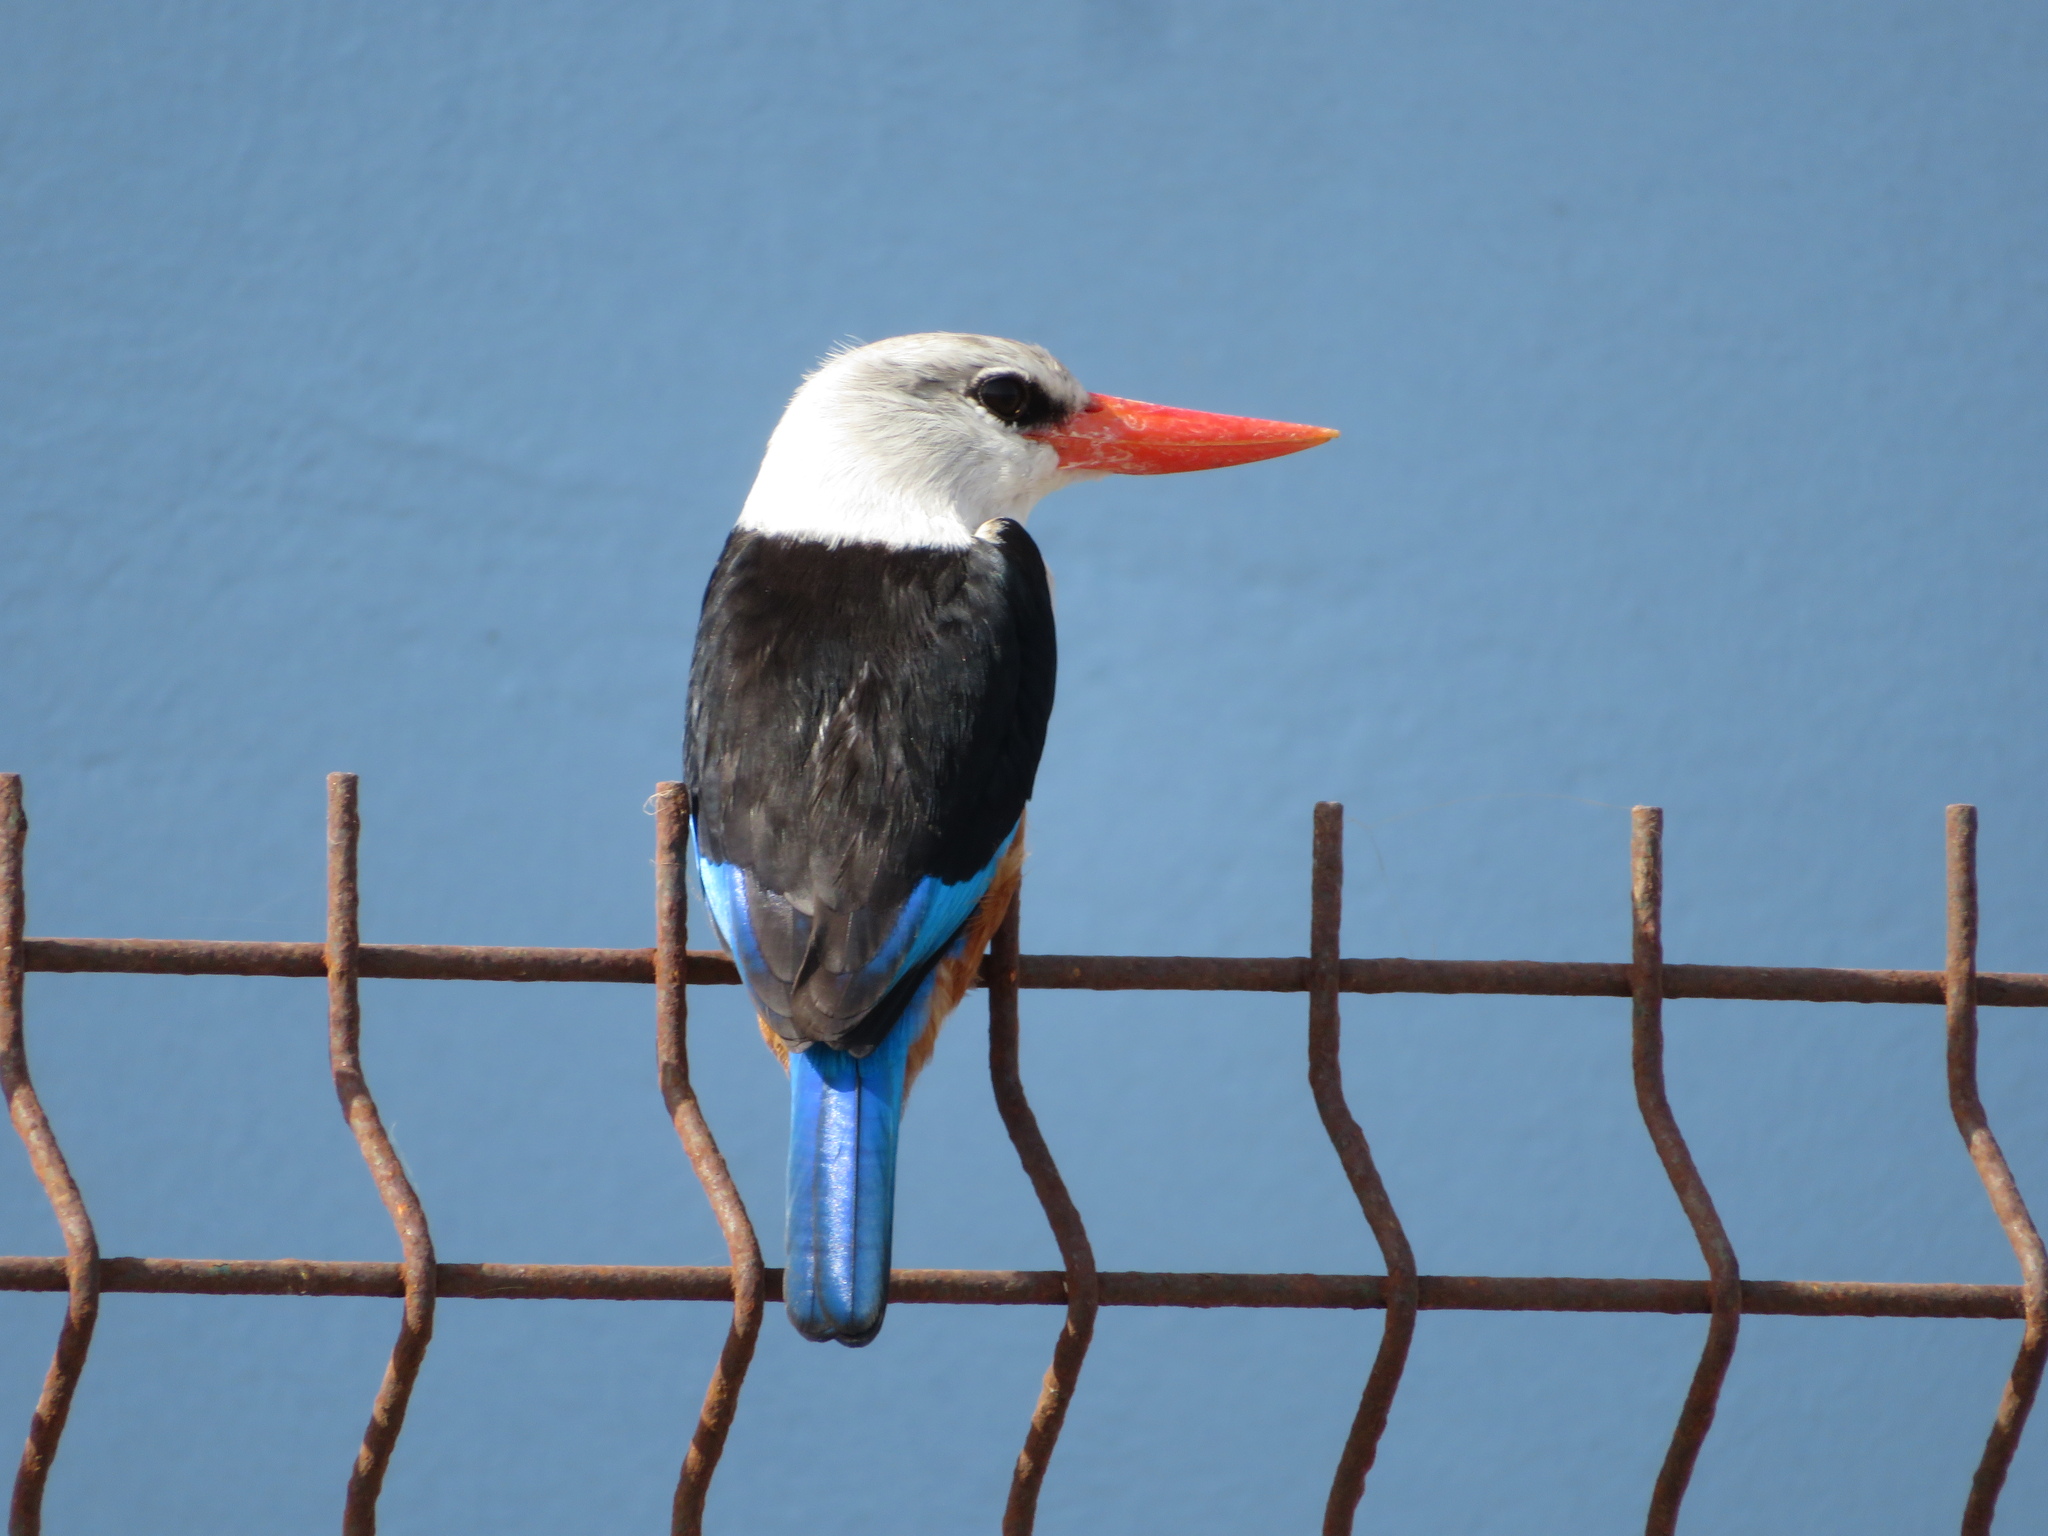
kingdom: Animalia
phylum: Chordata
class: Aves
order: Coraciiformes
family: Alcedinidae
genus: Halcyon
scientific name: Halcyon leucocephala
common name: Grey-headed kingfisher
